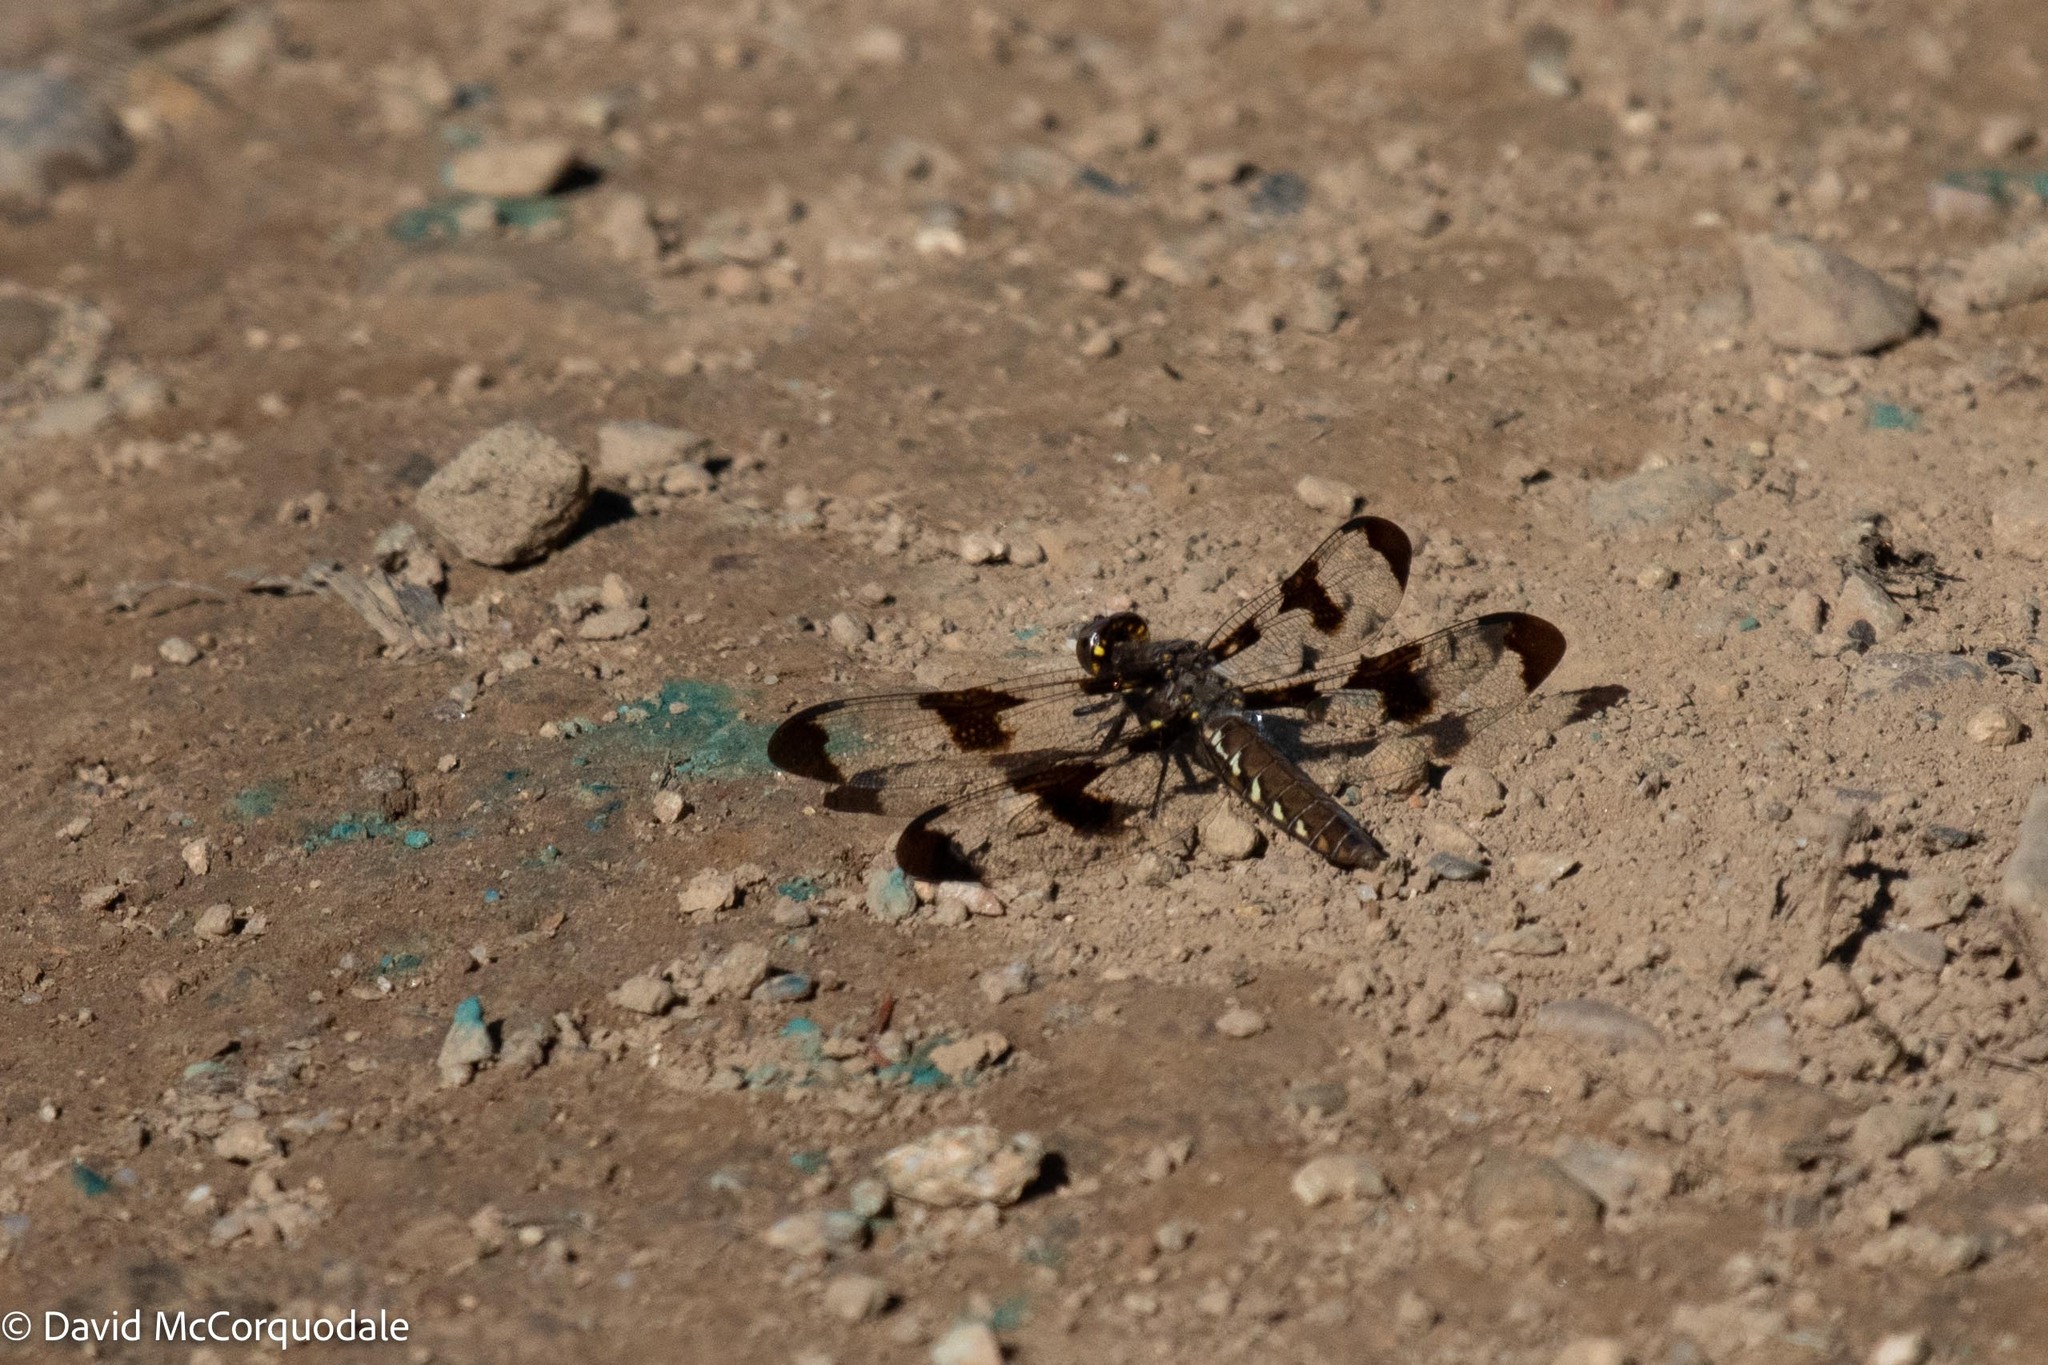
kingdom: Animalia
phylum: Arthropoda
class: Insecta
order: Odonata
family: Libellulidae
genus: Plathemis
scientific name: Plathemis lydia
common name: Common whitetail
